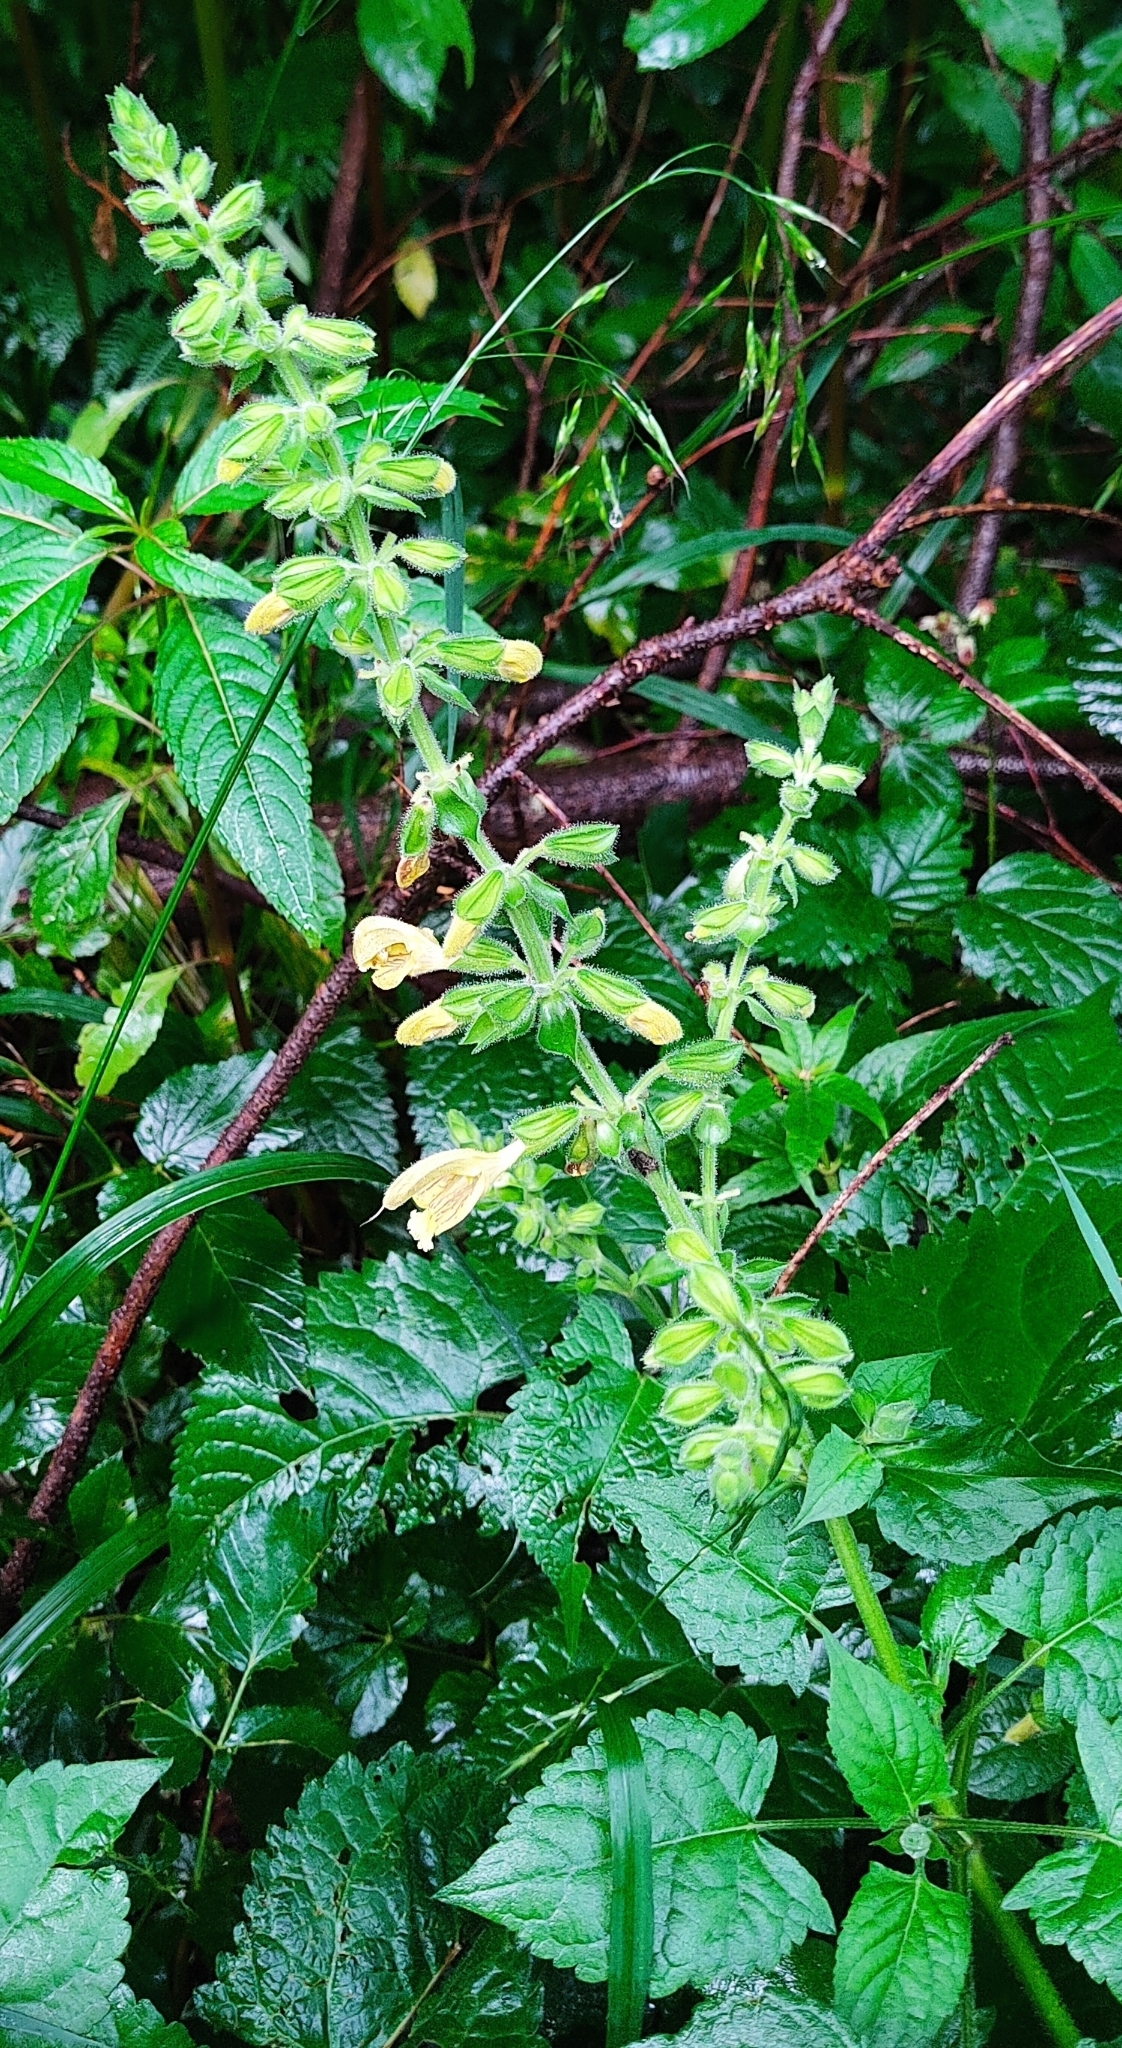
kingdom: Plantae
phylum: Tracheophyta
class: Magnoliopsida
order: Lamiales
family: Lamiaceae
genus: Salvia
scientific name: Salvia glutinosa
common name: Sticky clary
